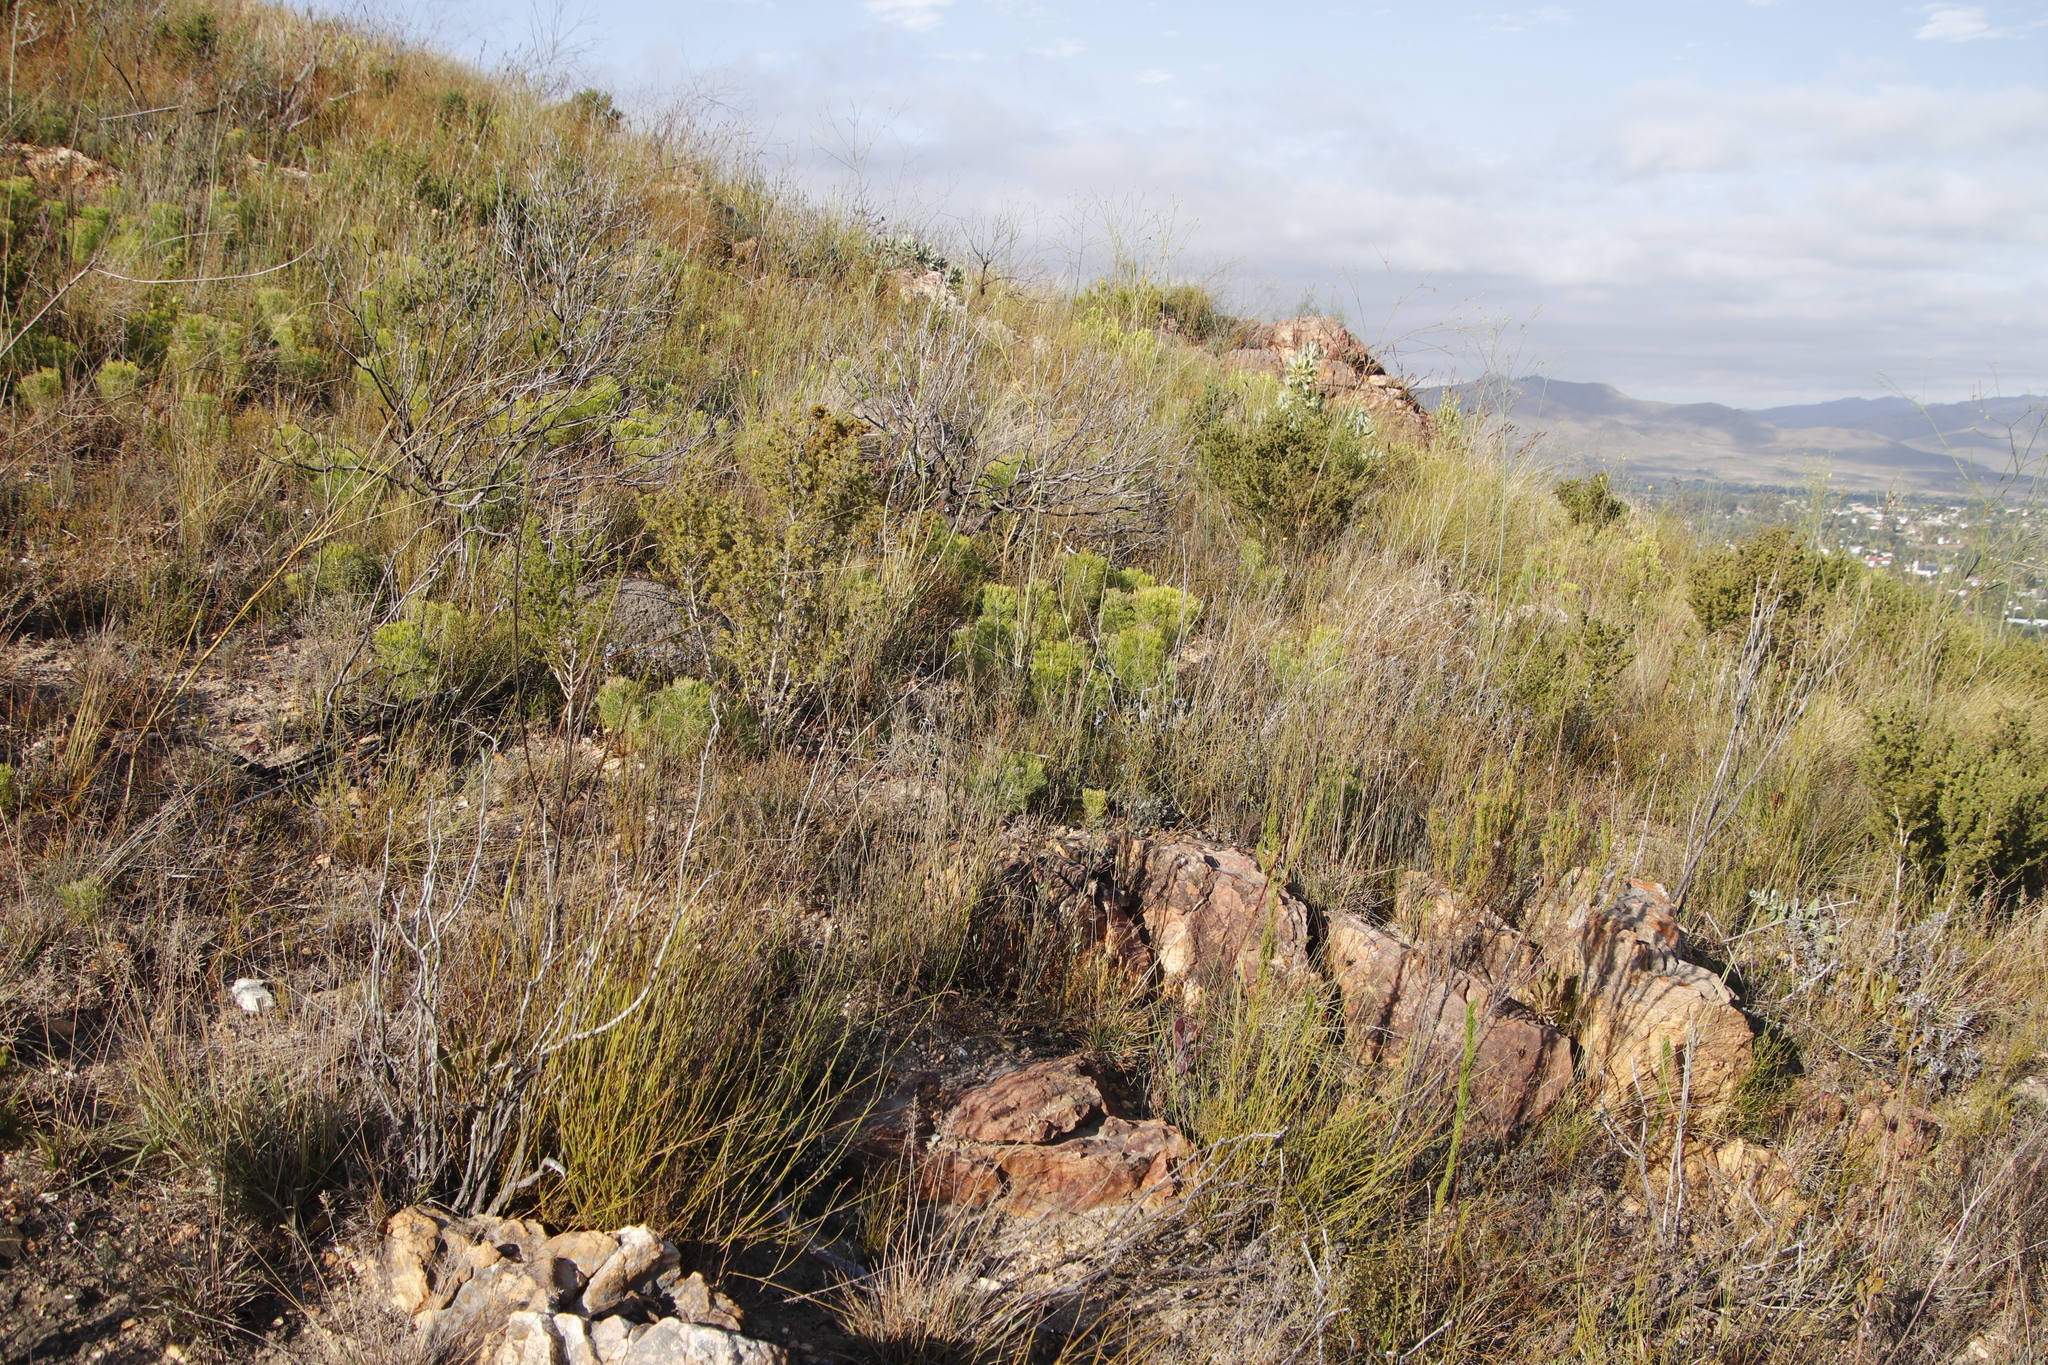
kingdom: Plantae
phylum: Tracheophyta
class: Magnoliopsida
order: Proteales
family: Proteaceae
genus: Paranomus
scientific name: Paranomus dispersus
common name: Long-head sceptre
